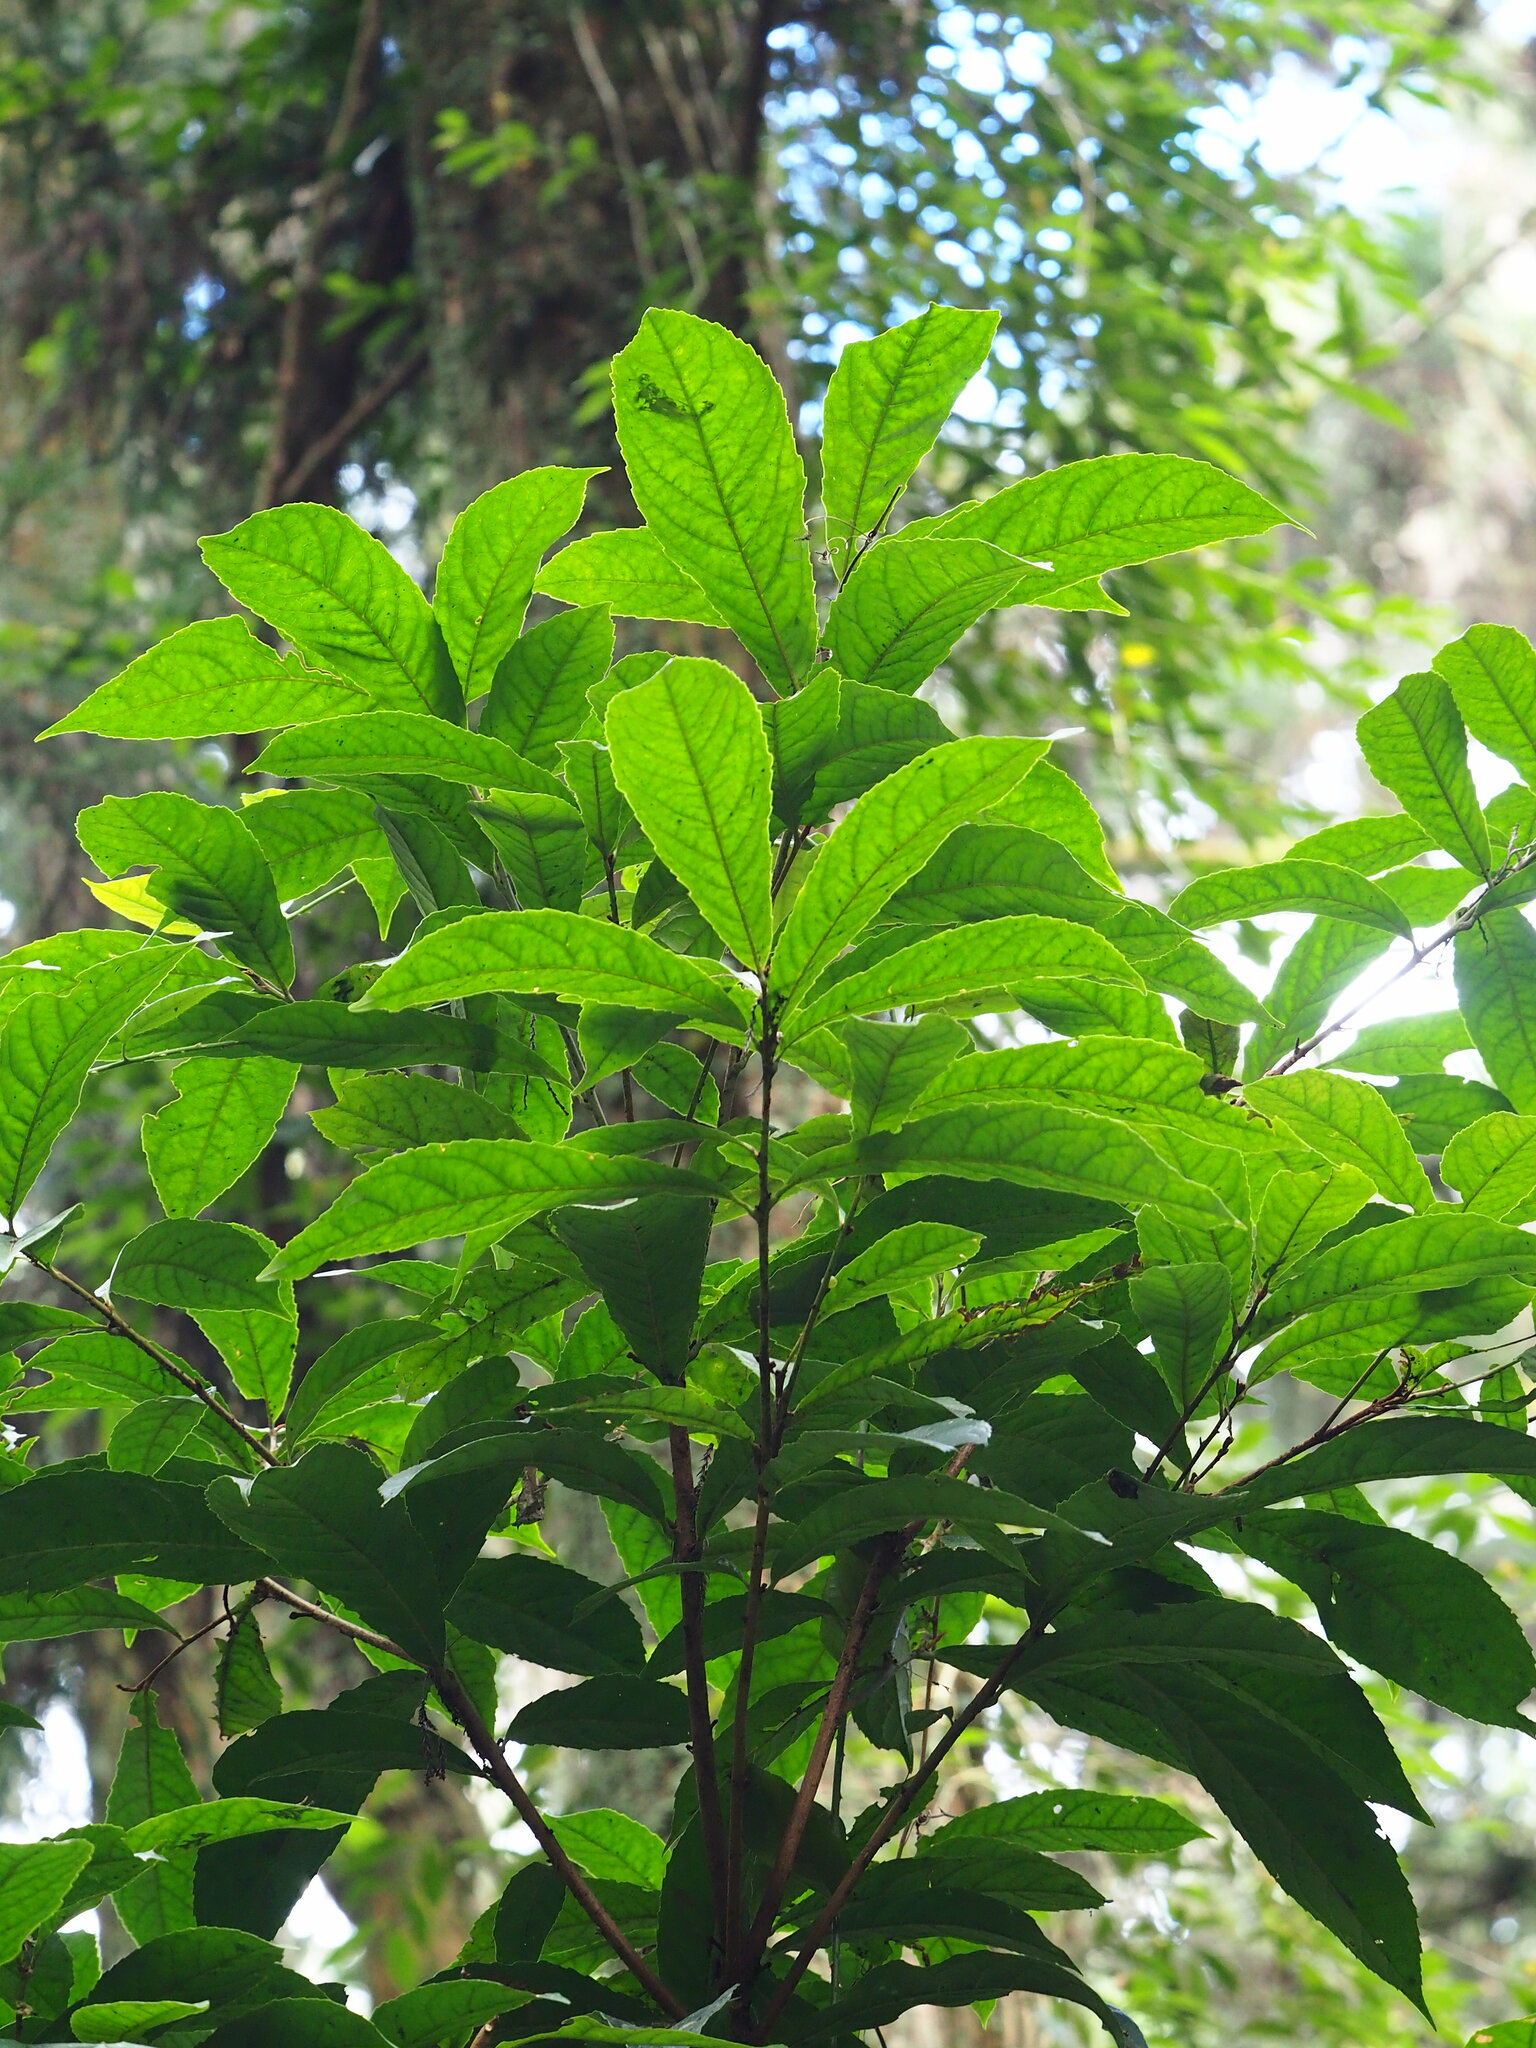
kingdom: Plantae
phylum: Tracheophyta
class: Magnoliopsida
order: Proteales
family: Proteaceae
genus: Helicia
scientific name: Helicia formosana
